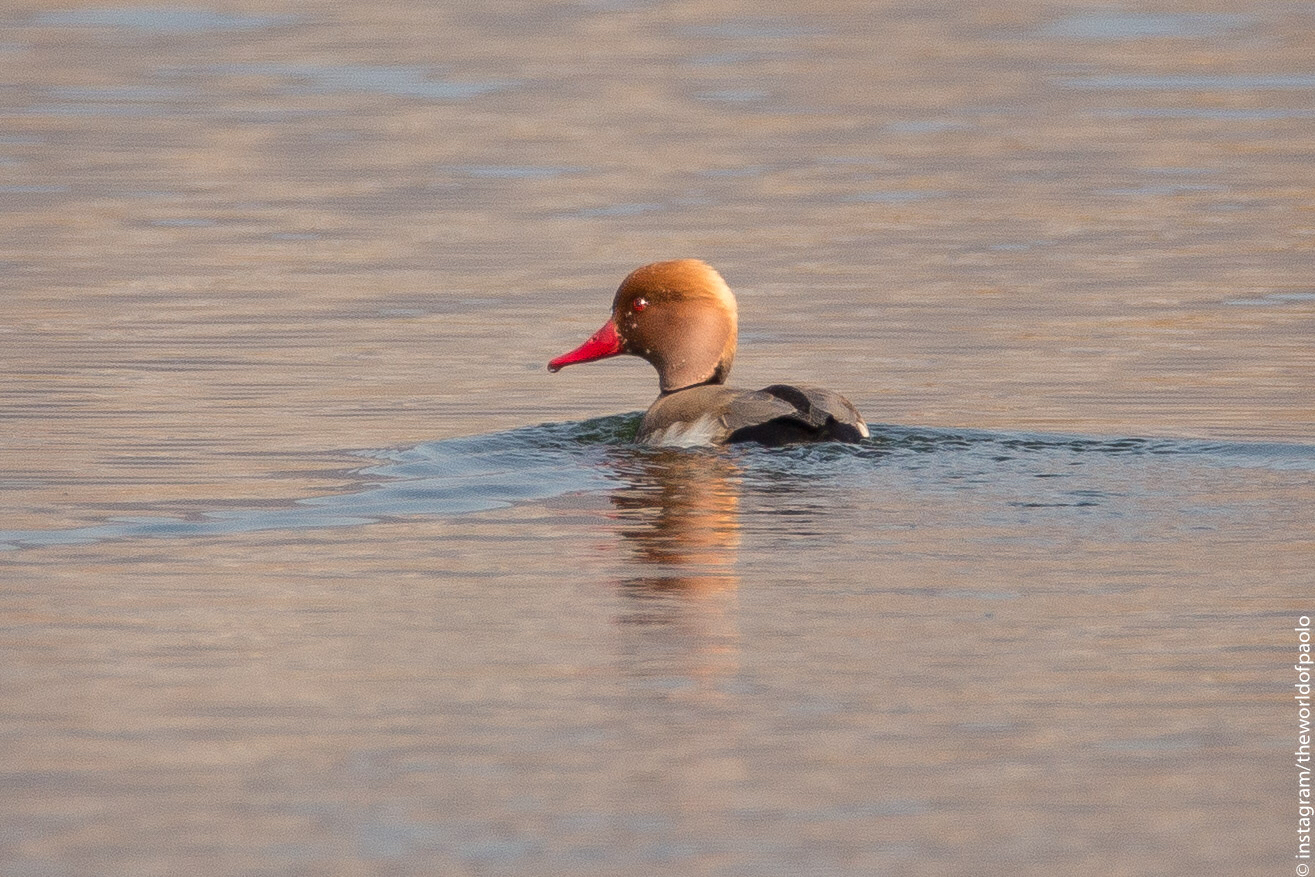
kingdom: Animalia
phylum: Chordata
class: Aves
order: Anseriformes
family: Anatidae
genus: Netta
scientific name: Netta rufina
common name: Red-crested pochard
